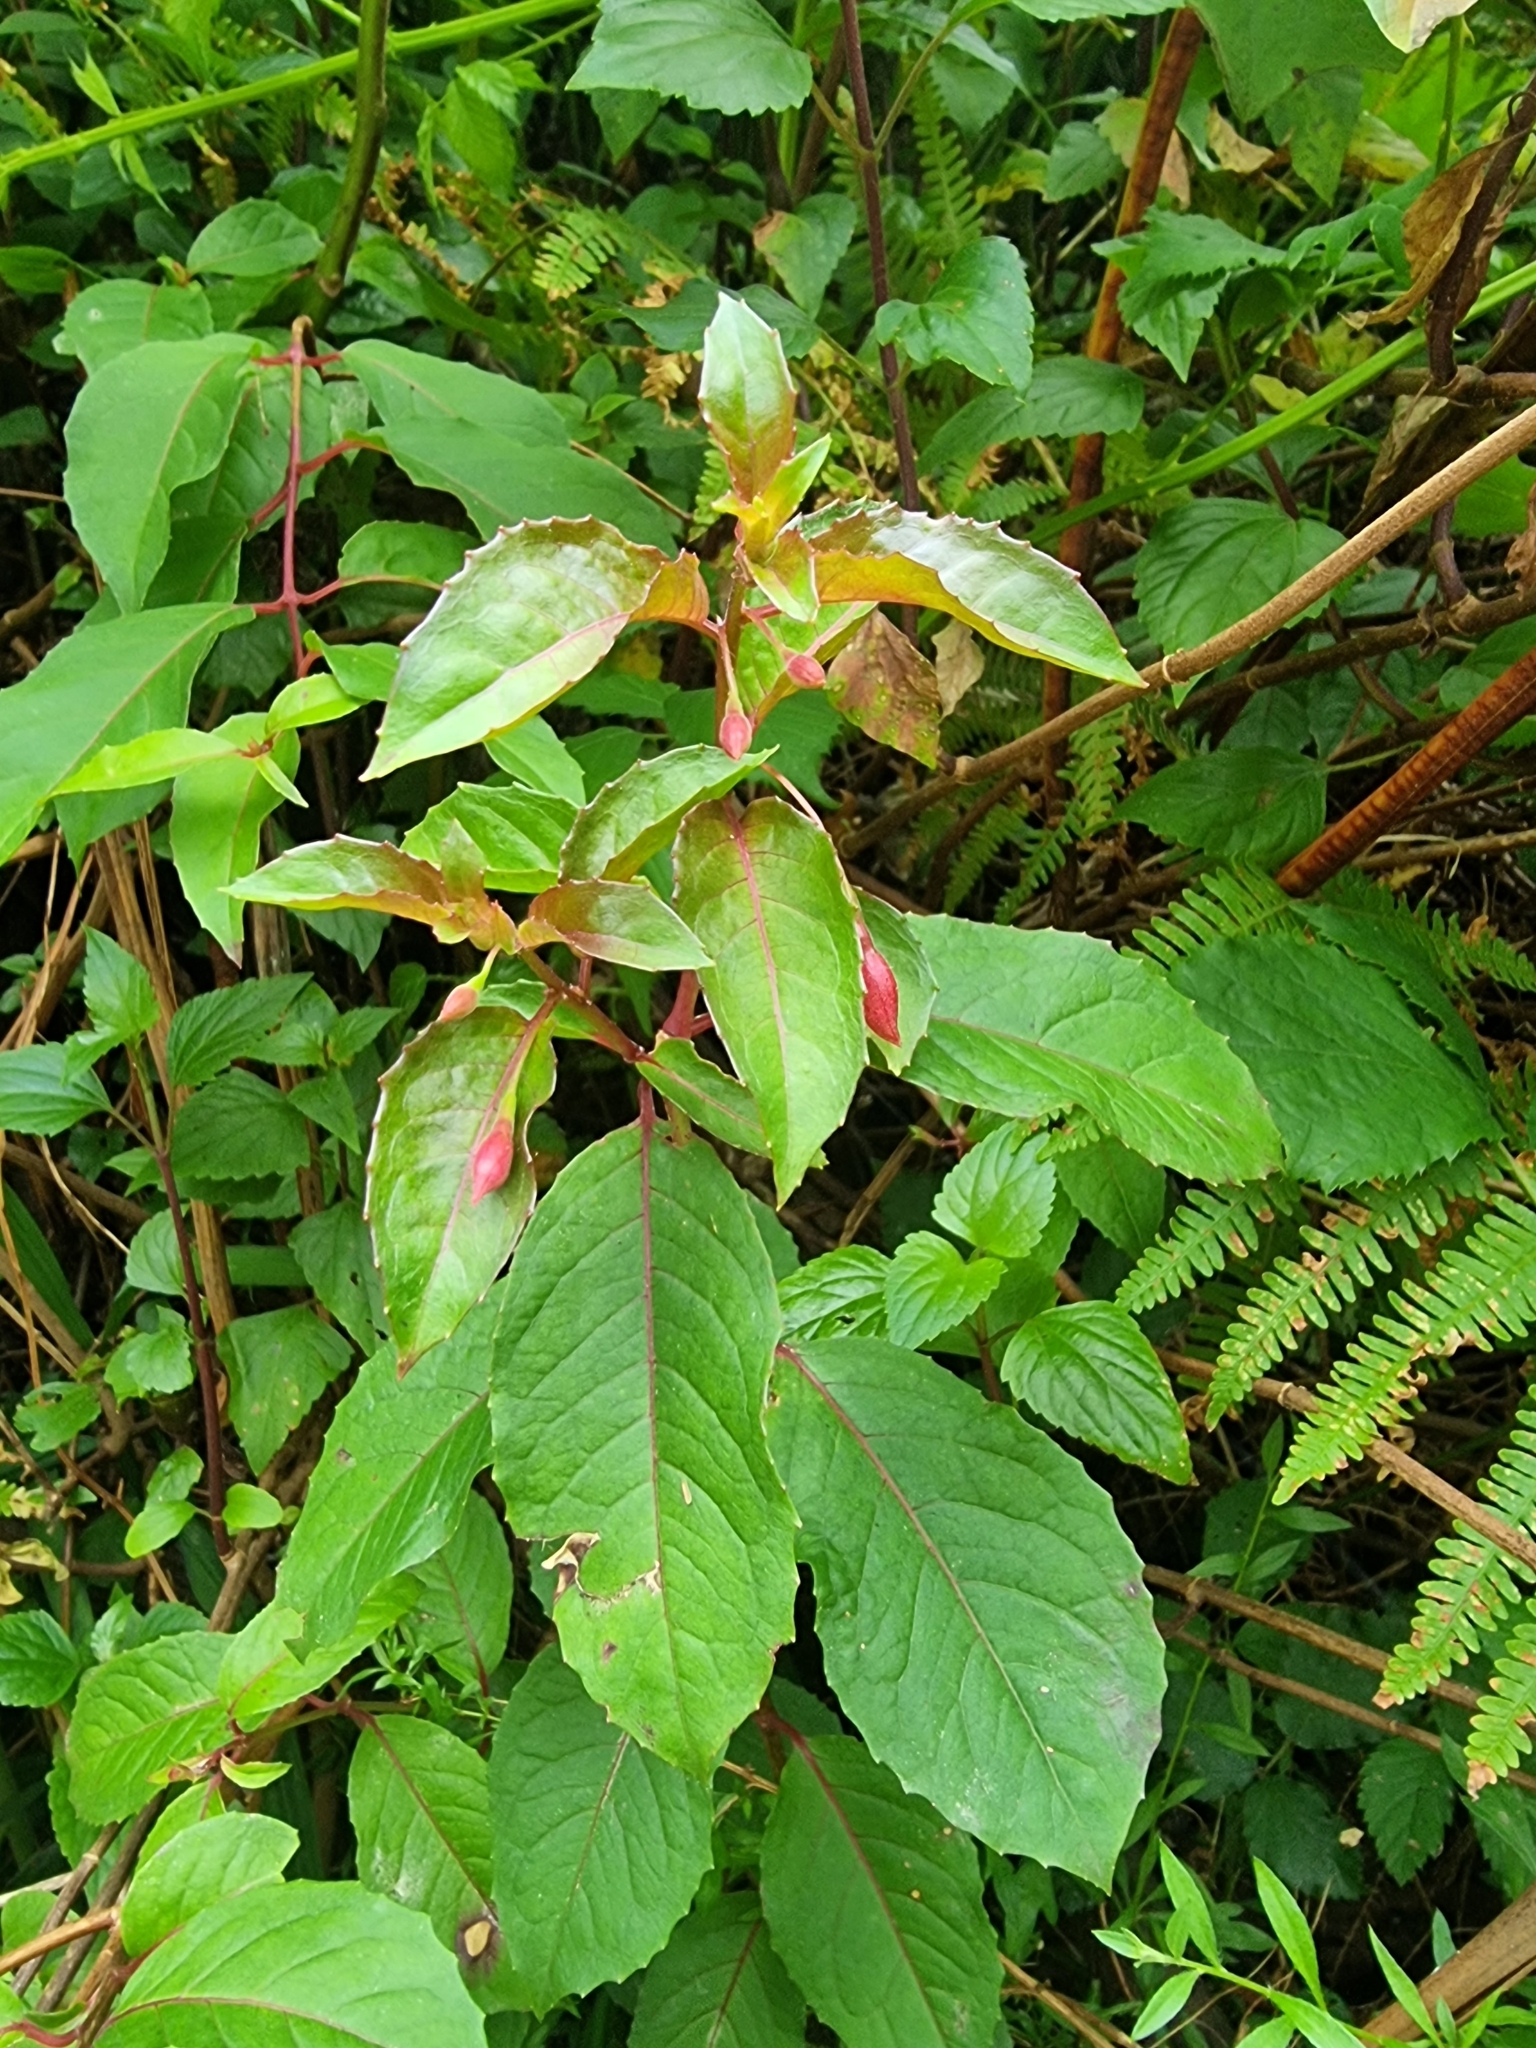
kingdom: Plantae
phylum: Tracheophyta
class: Magnoliopsida
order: Myrtales
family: Onagraceae
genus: Fuchsia
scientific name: Fuchsia magellanica
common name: Hardy fuchsia
